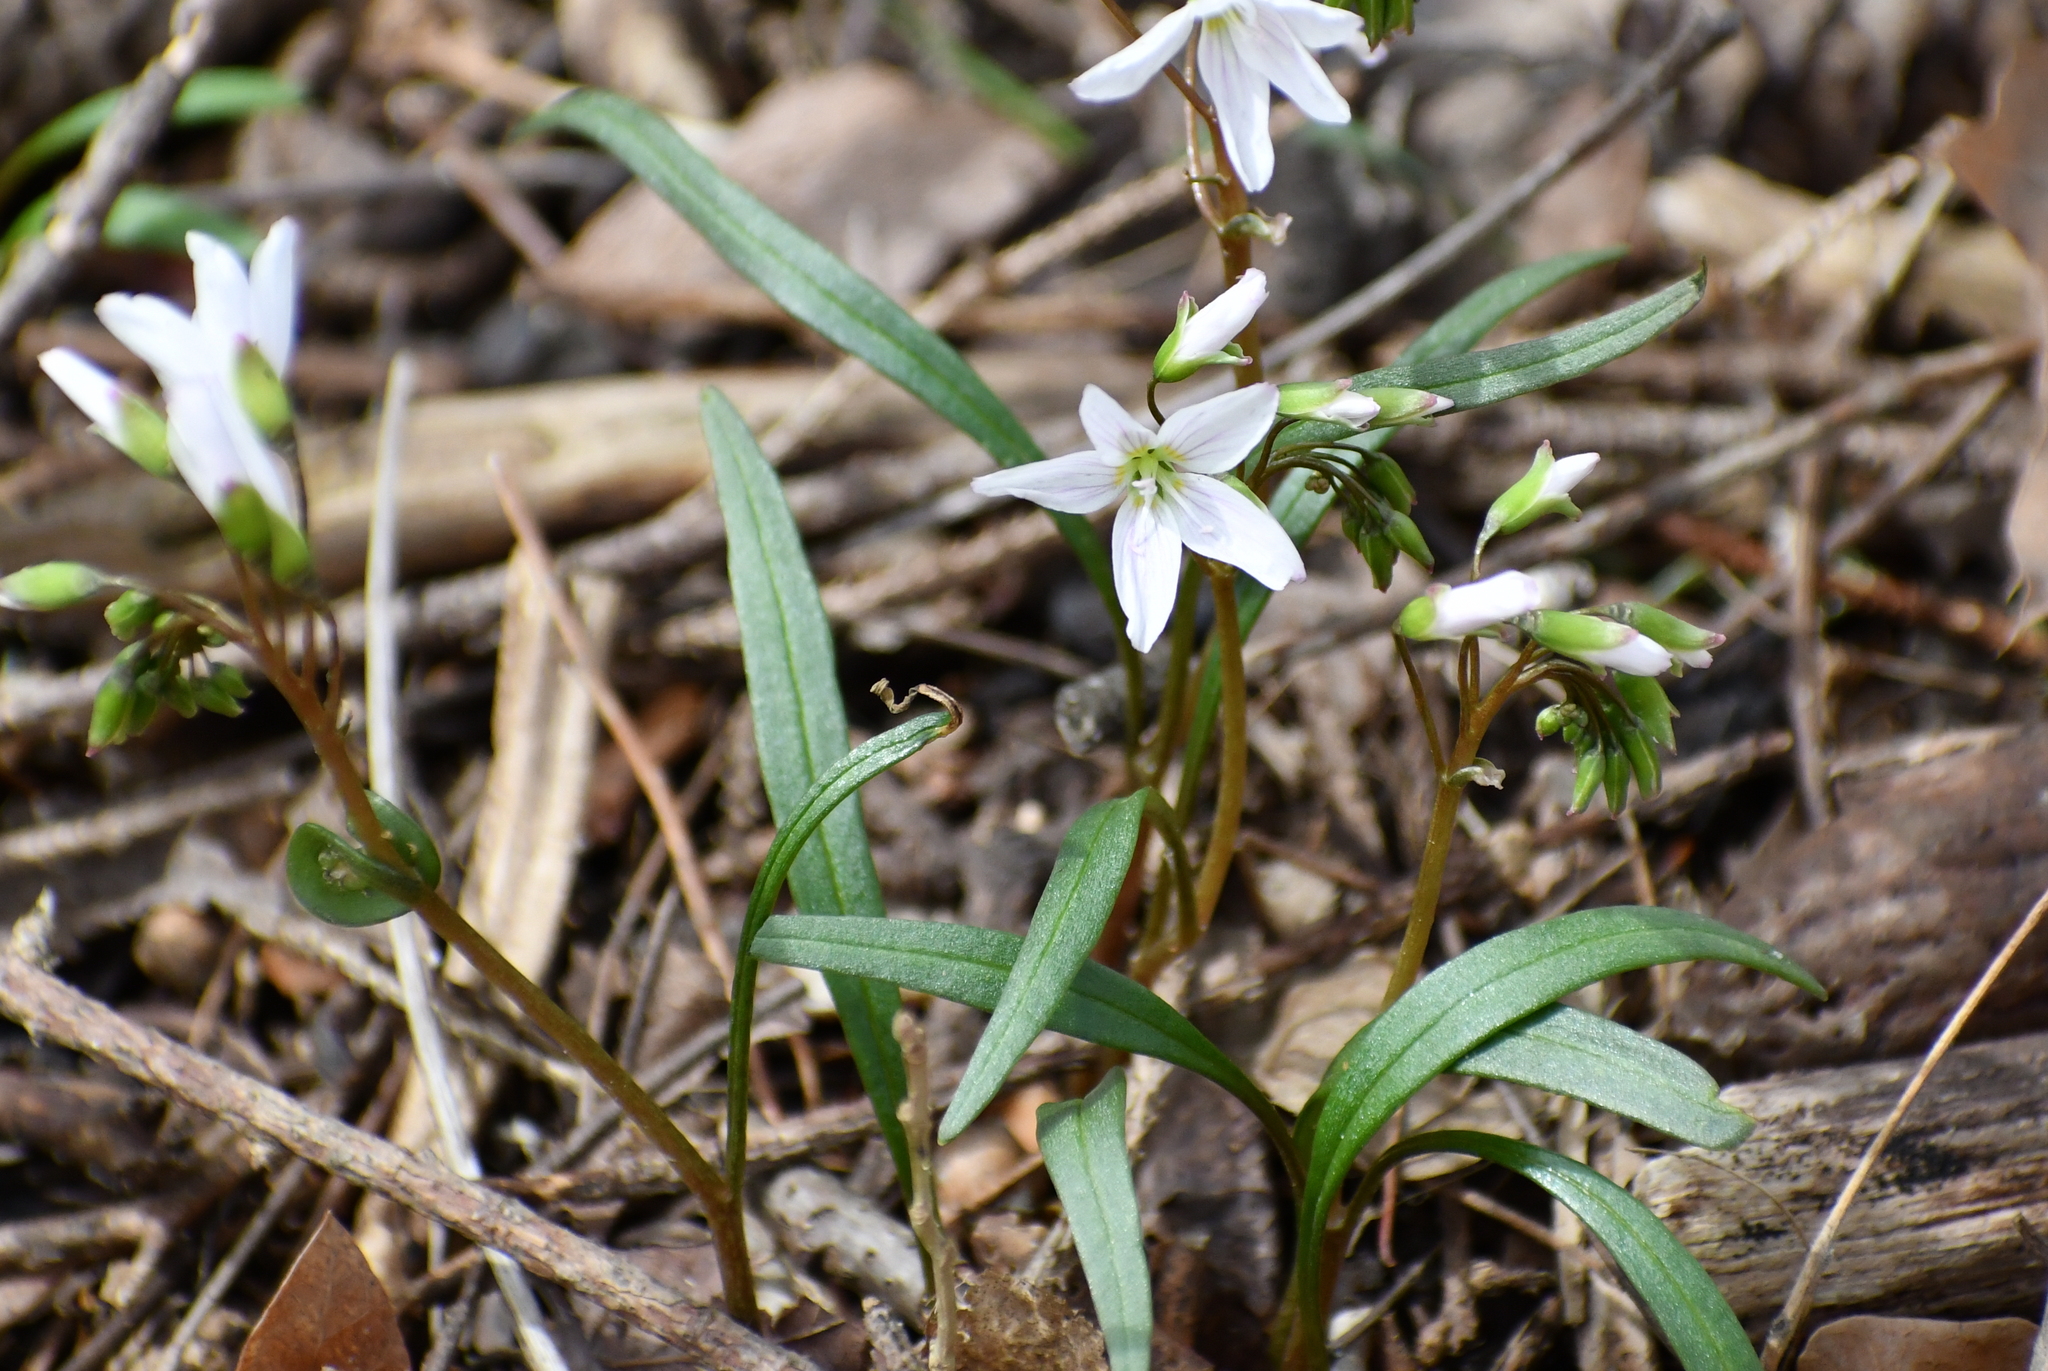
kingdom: Plantae
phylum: Tracheophyta
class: Magnoliopsida
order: Caryophyllales
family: Montiaceae
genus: Claytonia
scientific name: Claytonia virginica
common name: Virginia springbeauty
